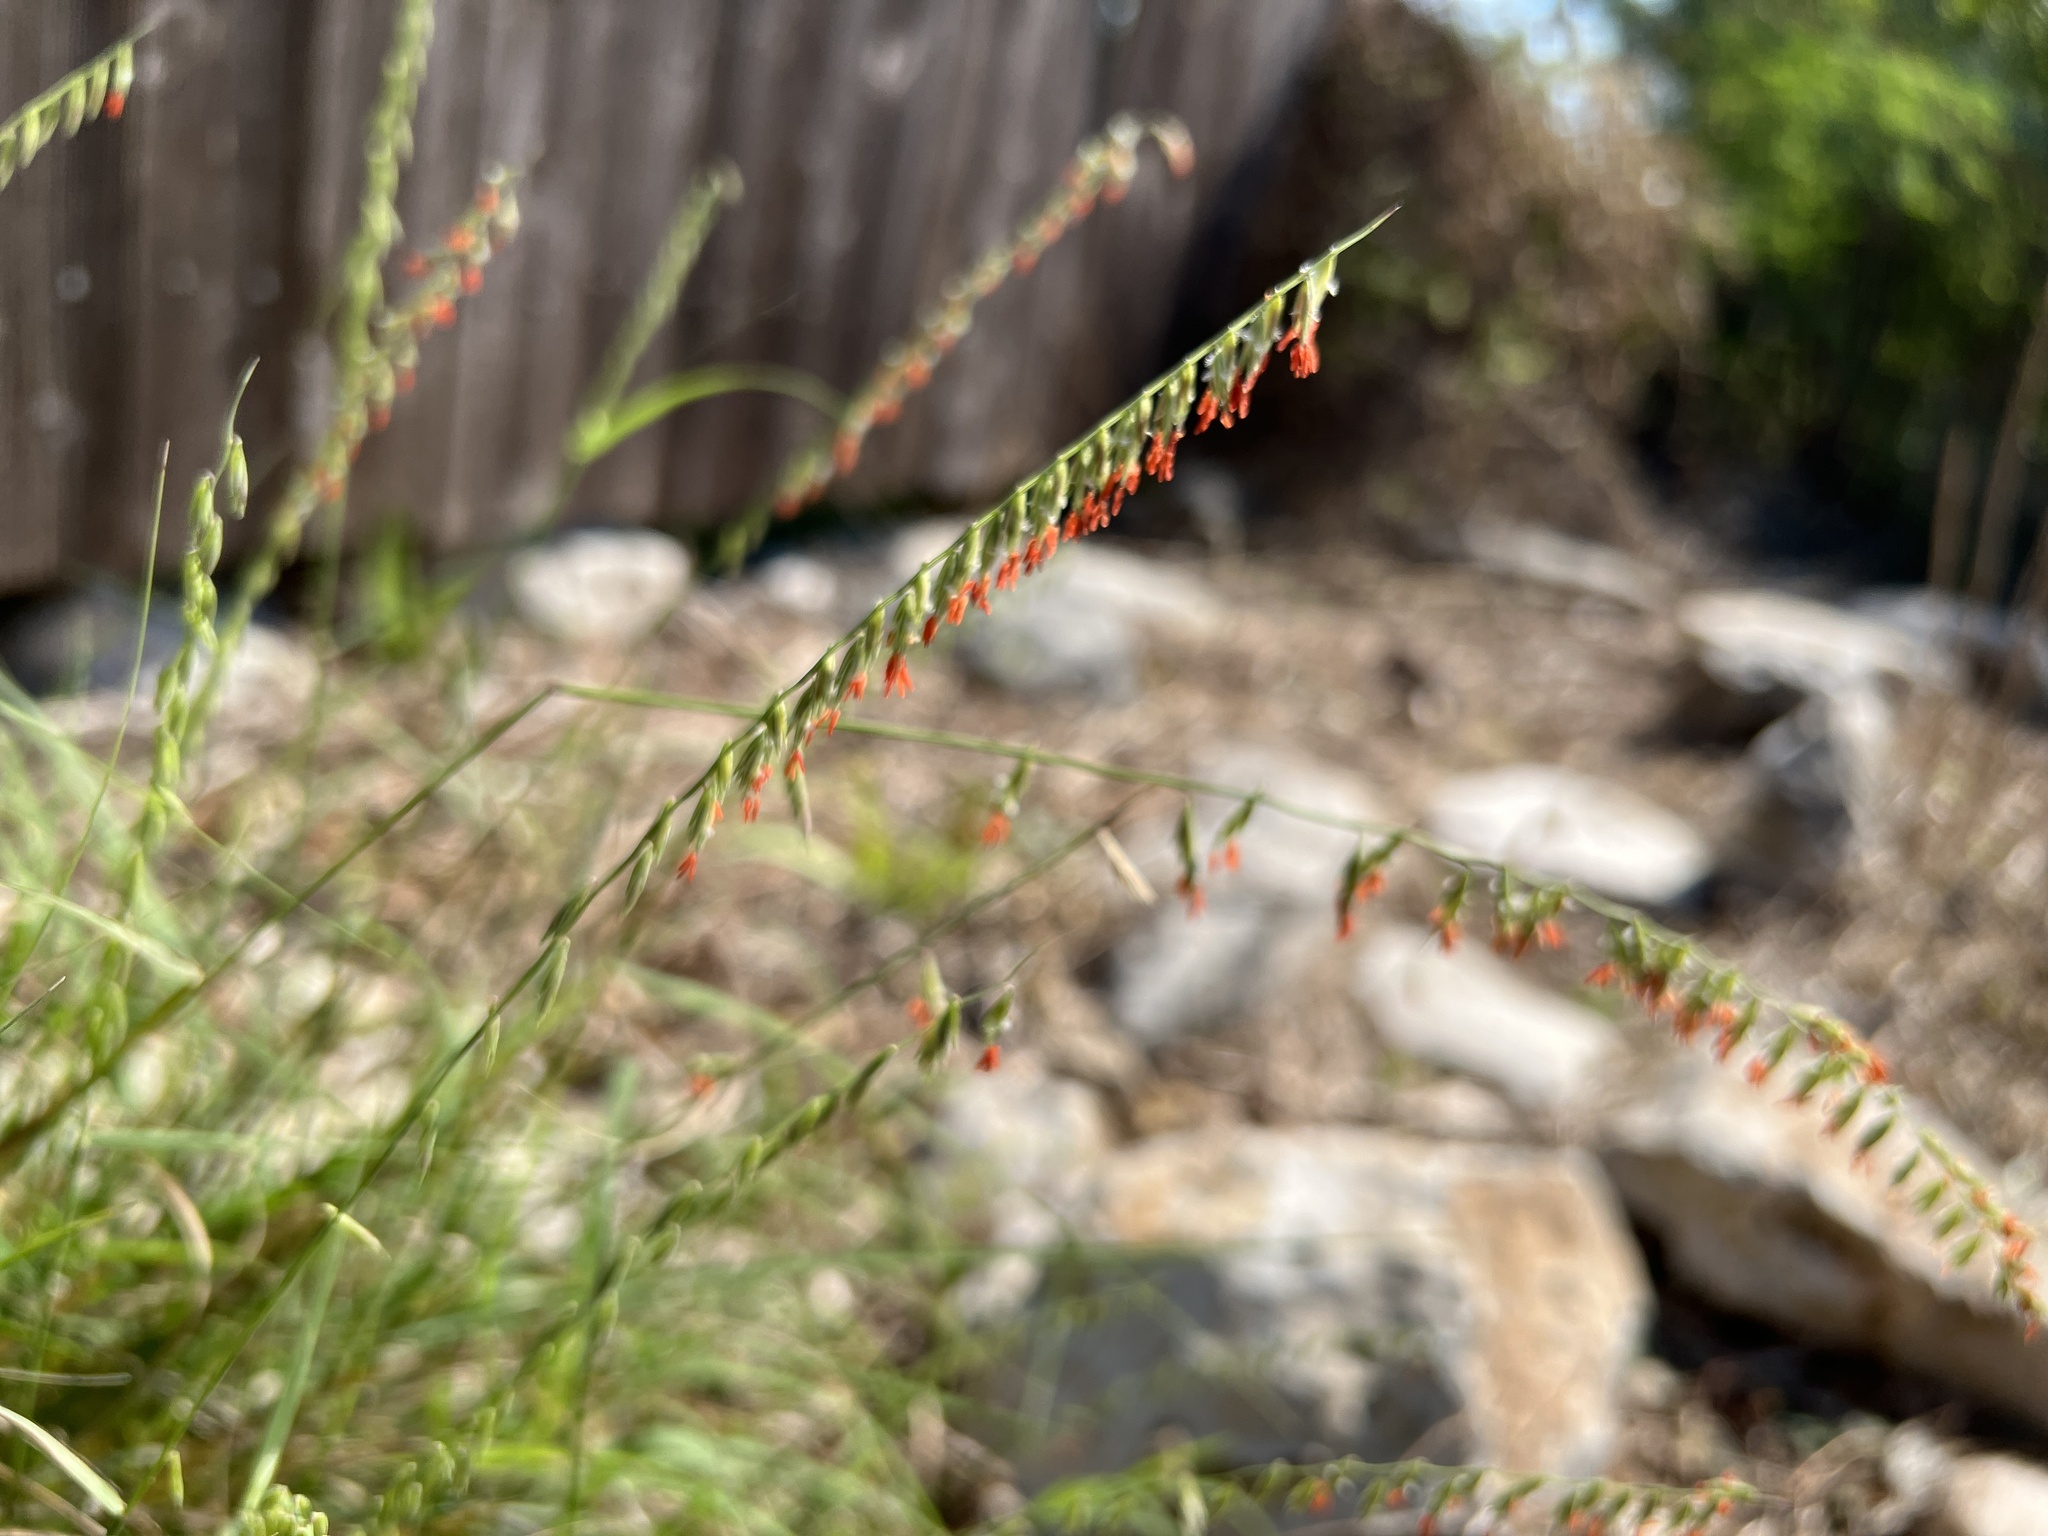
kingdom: Plantae
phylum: Tracheophyta
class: Liliopsida
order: Poales
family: Poaceae
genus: Bouteloua
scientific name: Bouteloua curtipendula
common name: Side-oats grama
